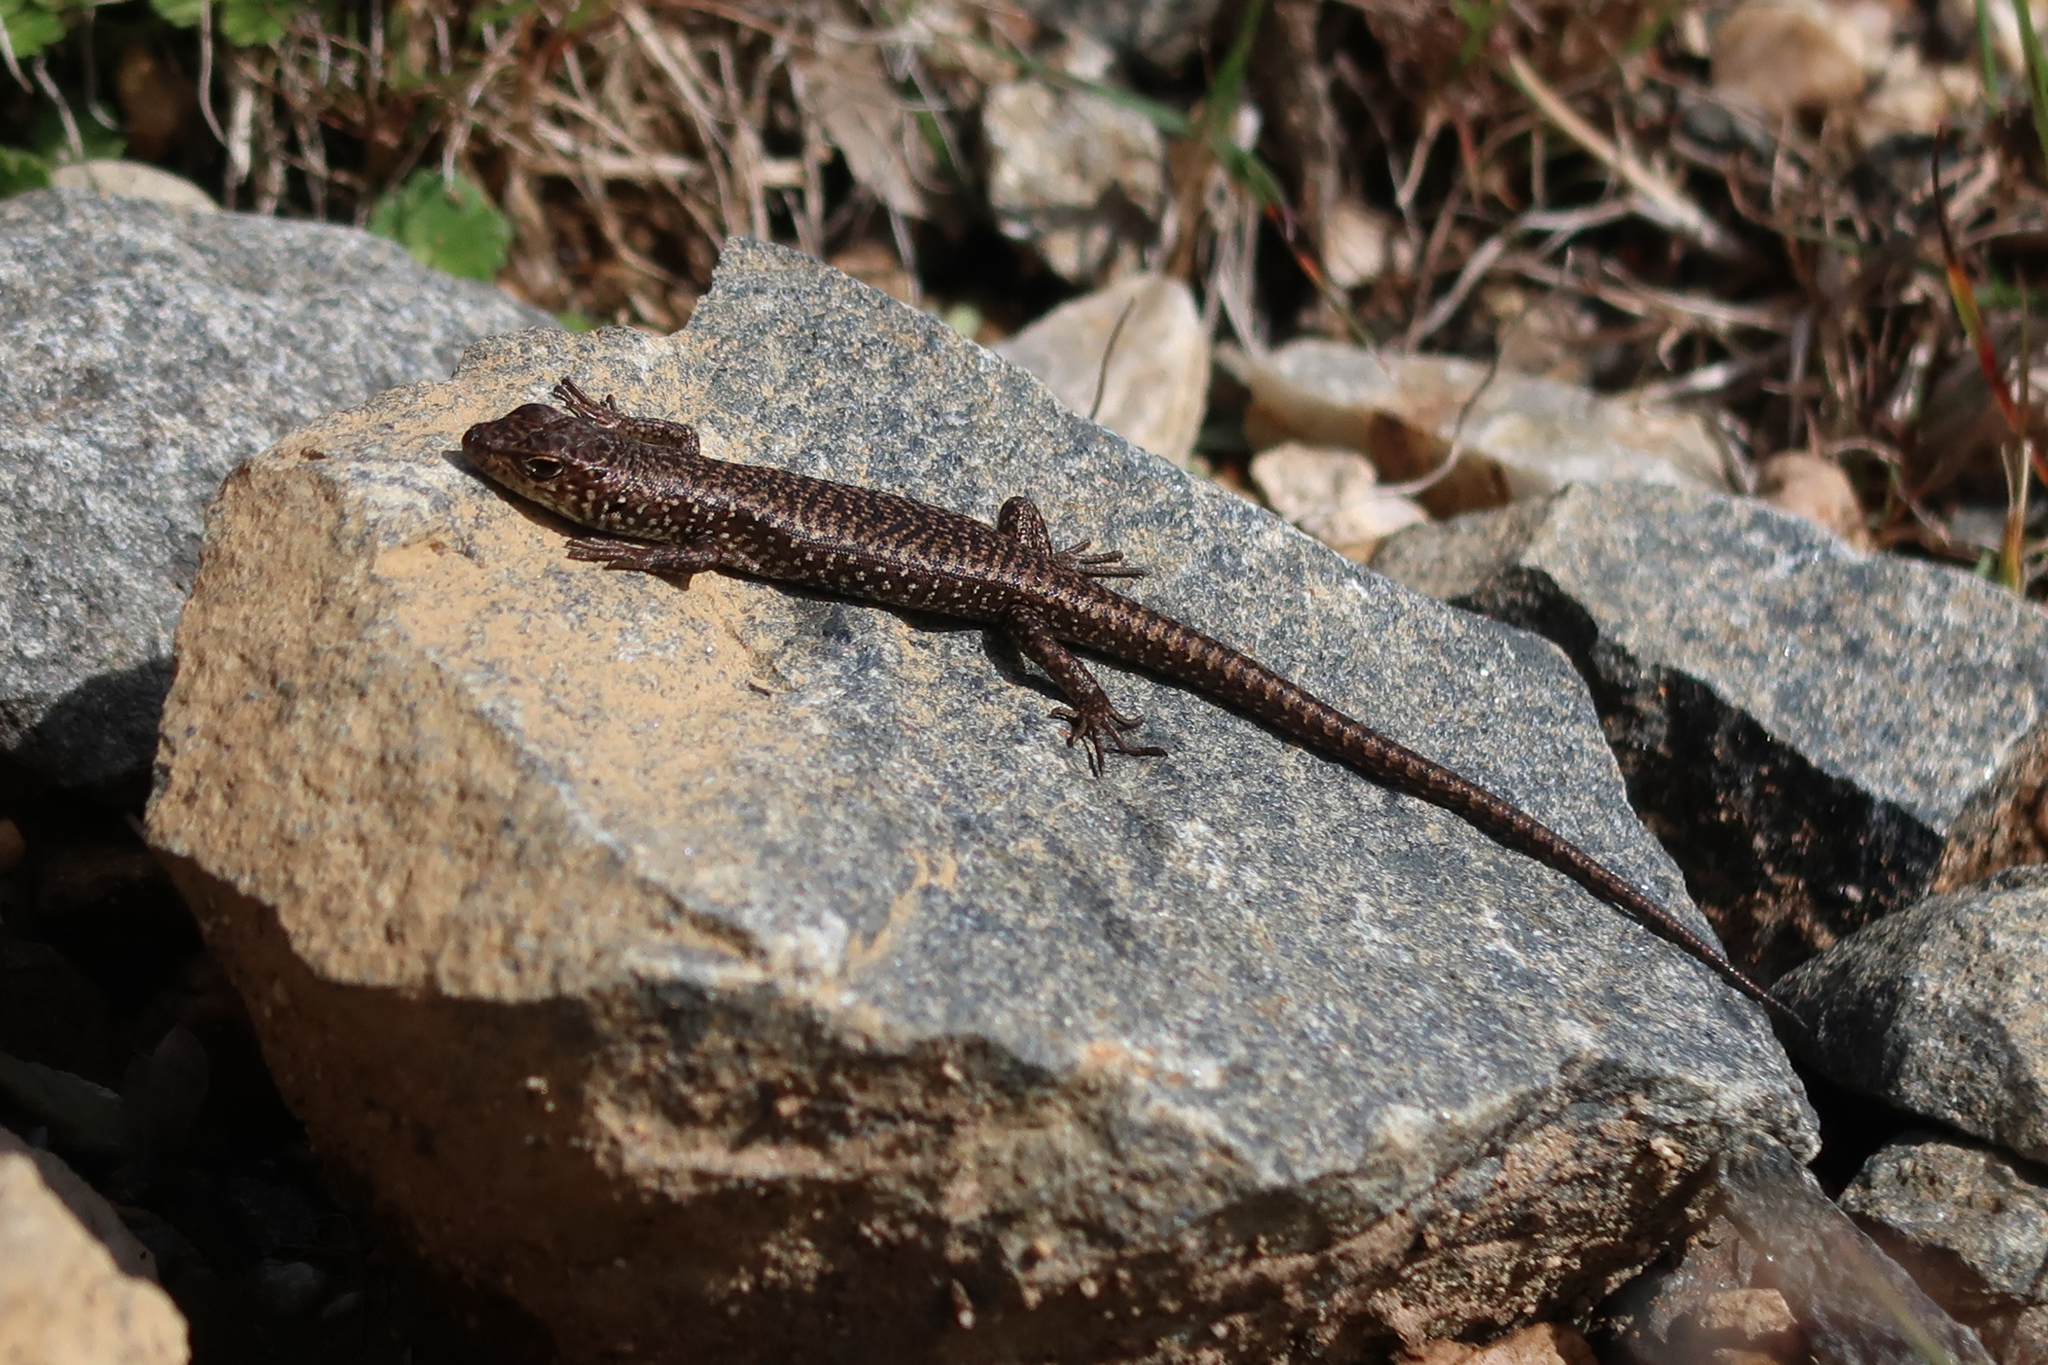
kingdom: Animalia
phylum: Chordata
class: Squamata
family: Scincidae
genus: Carinascincus
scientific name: Carinascincus ocellatus
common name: Ocellated cool-skink
